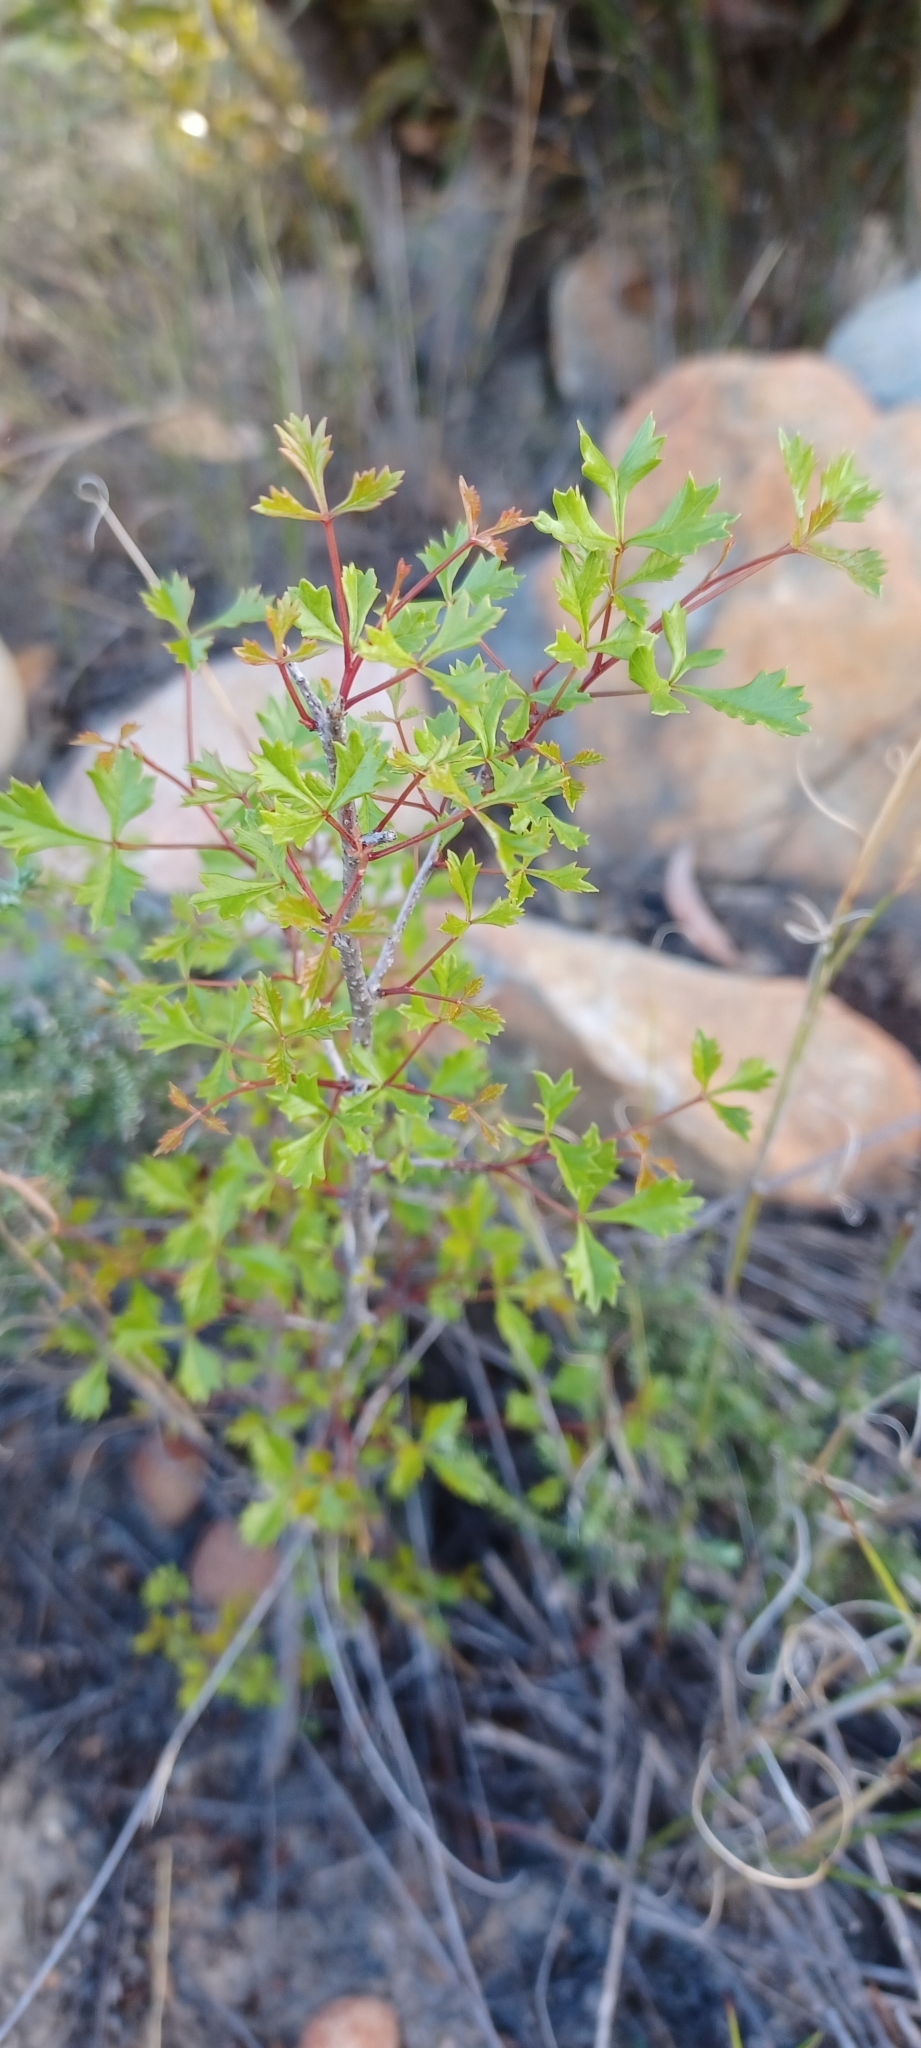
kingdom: Plantae
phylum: Tracheophyta
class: Magnoliopsida
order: Sapindales
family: Anacardiaceae
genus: Searsia
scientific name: Searsia dissecta
